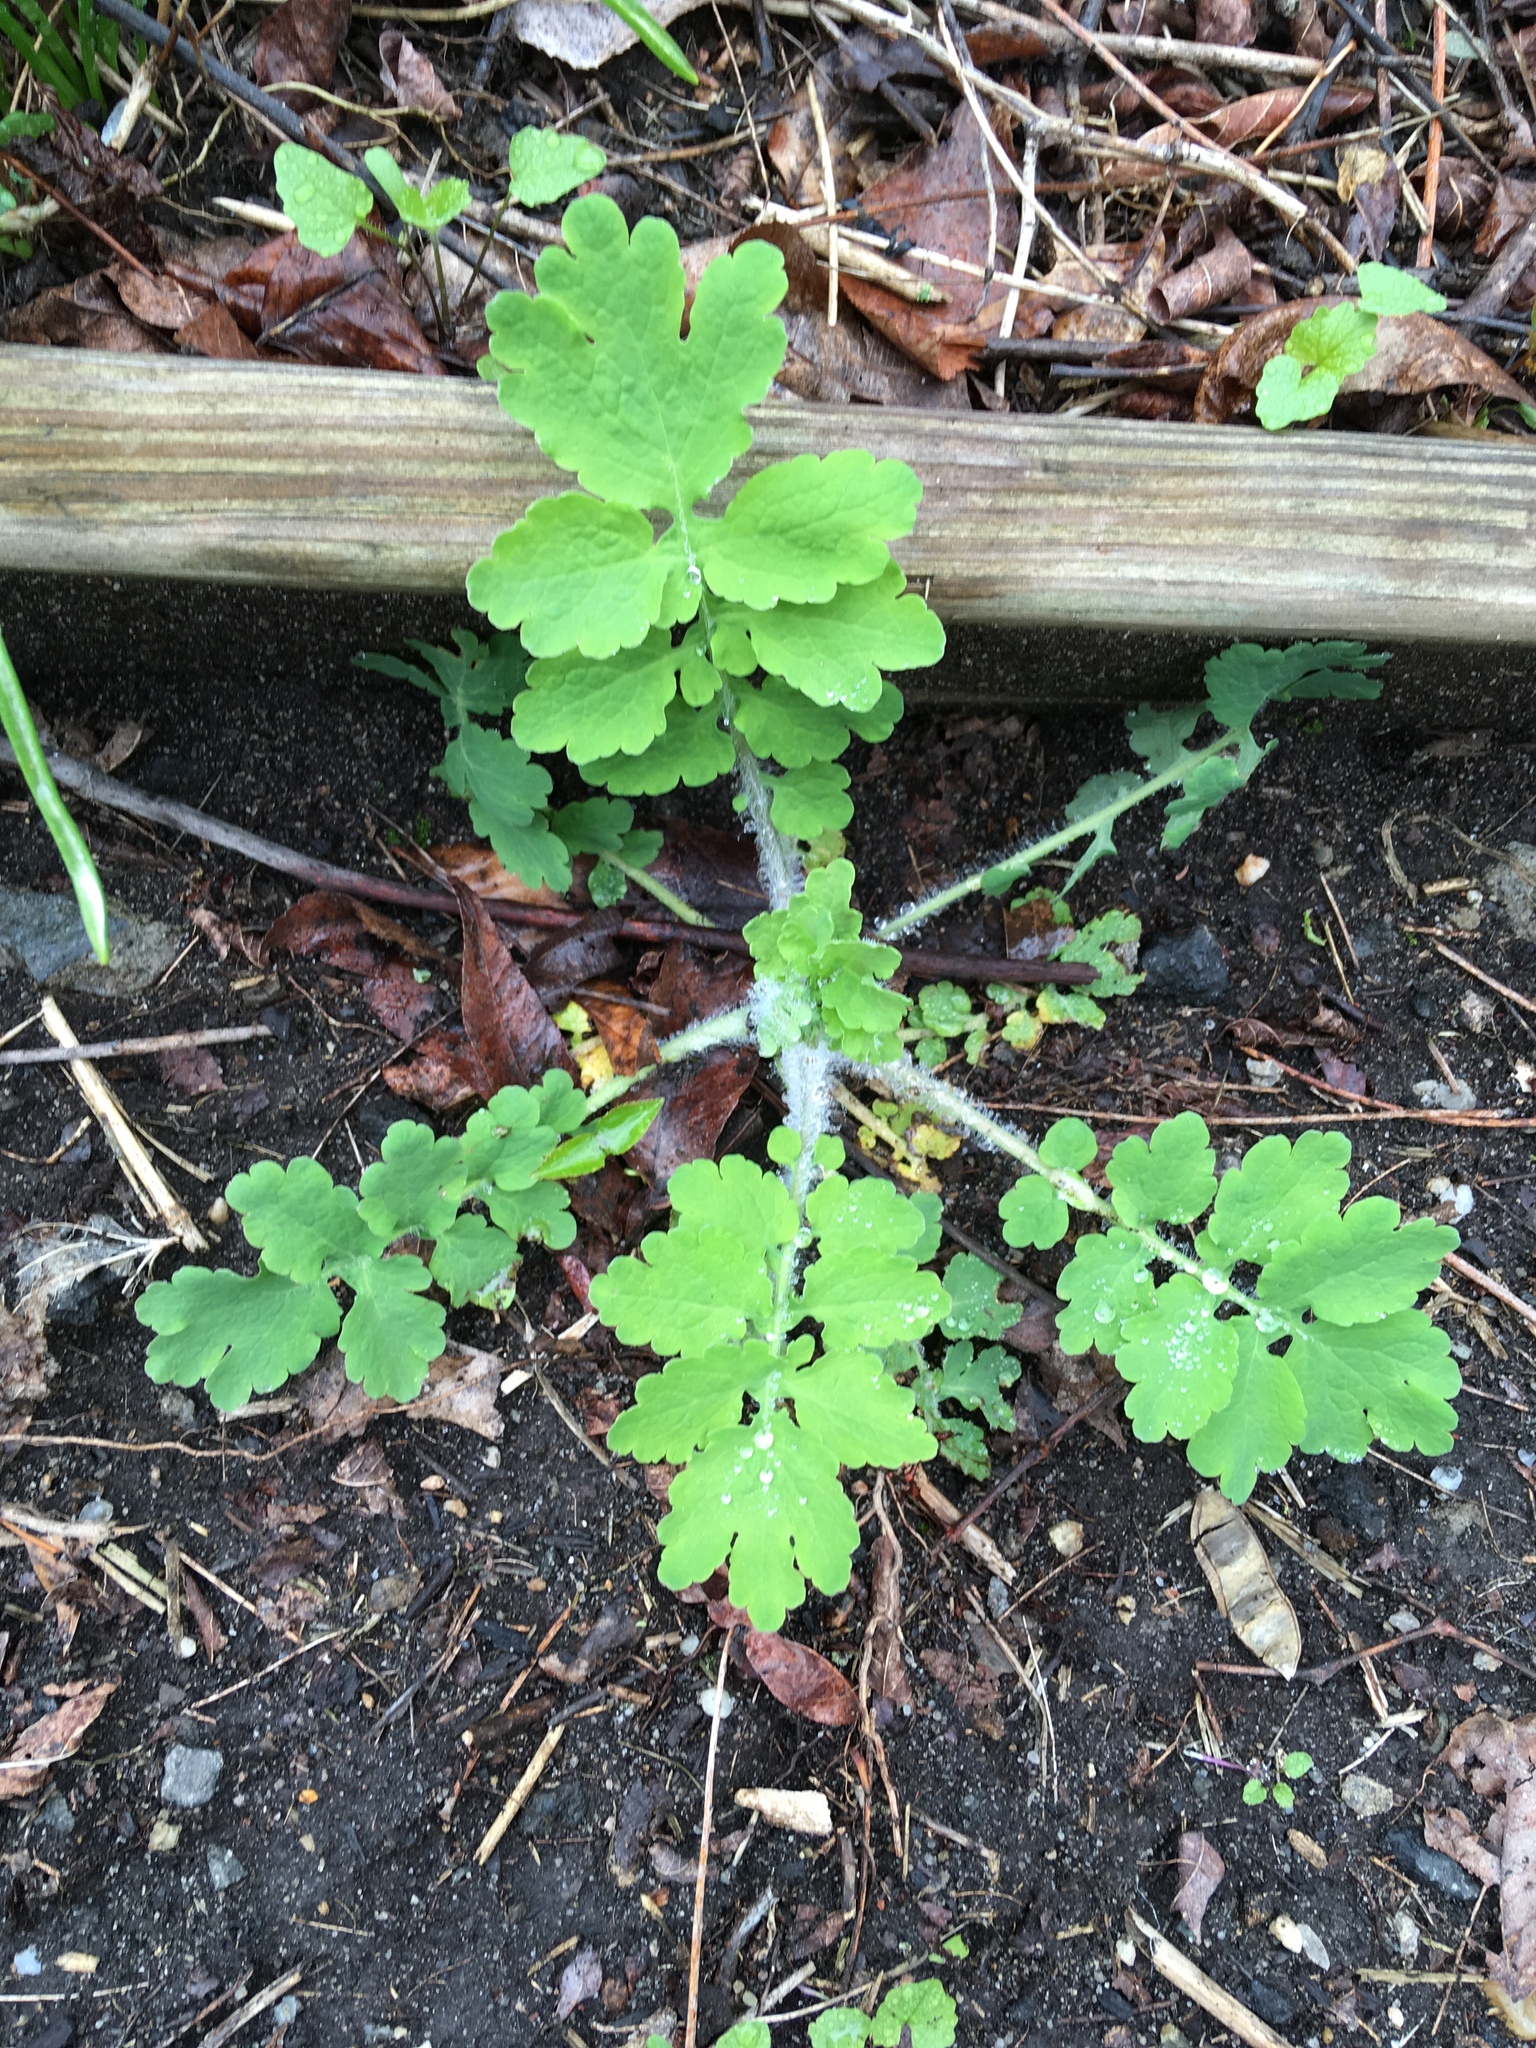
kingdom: Plantae
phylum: Tracheophyta
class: Magnoliopsida
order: Ranunculales
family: Papaveraceae
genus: Chelidonium
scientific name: Chelidonium majus
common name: Greater celandine
